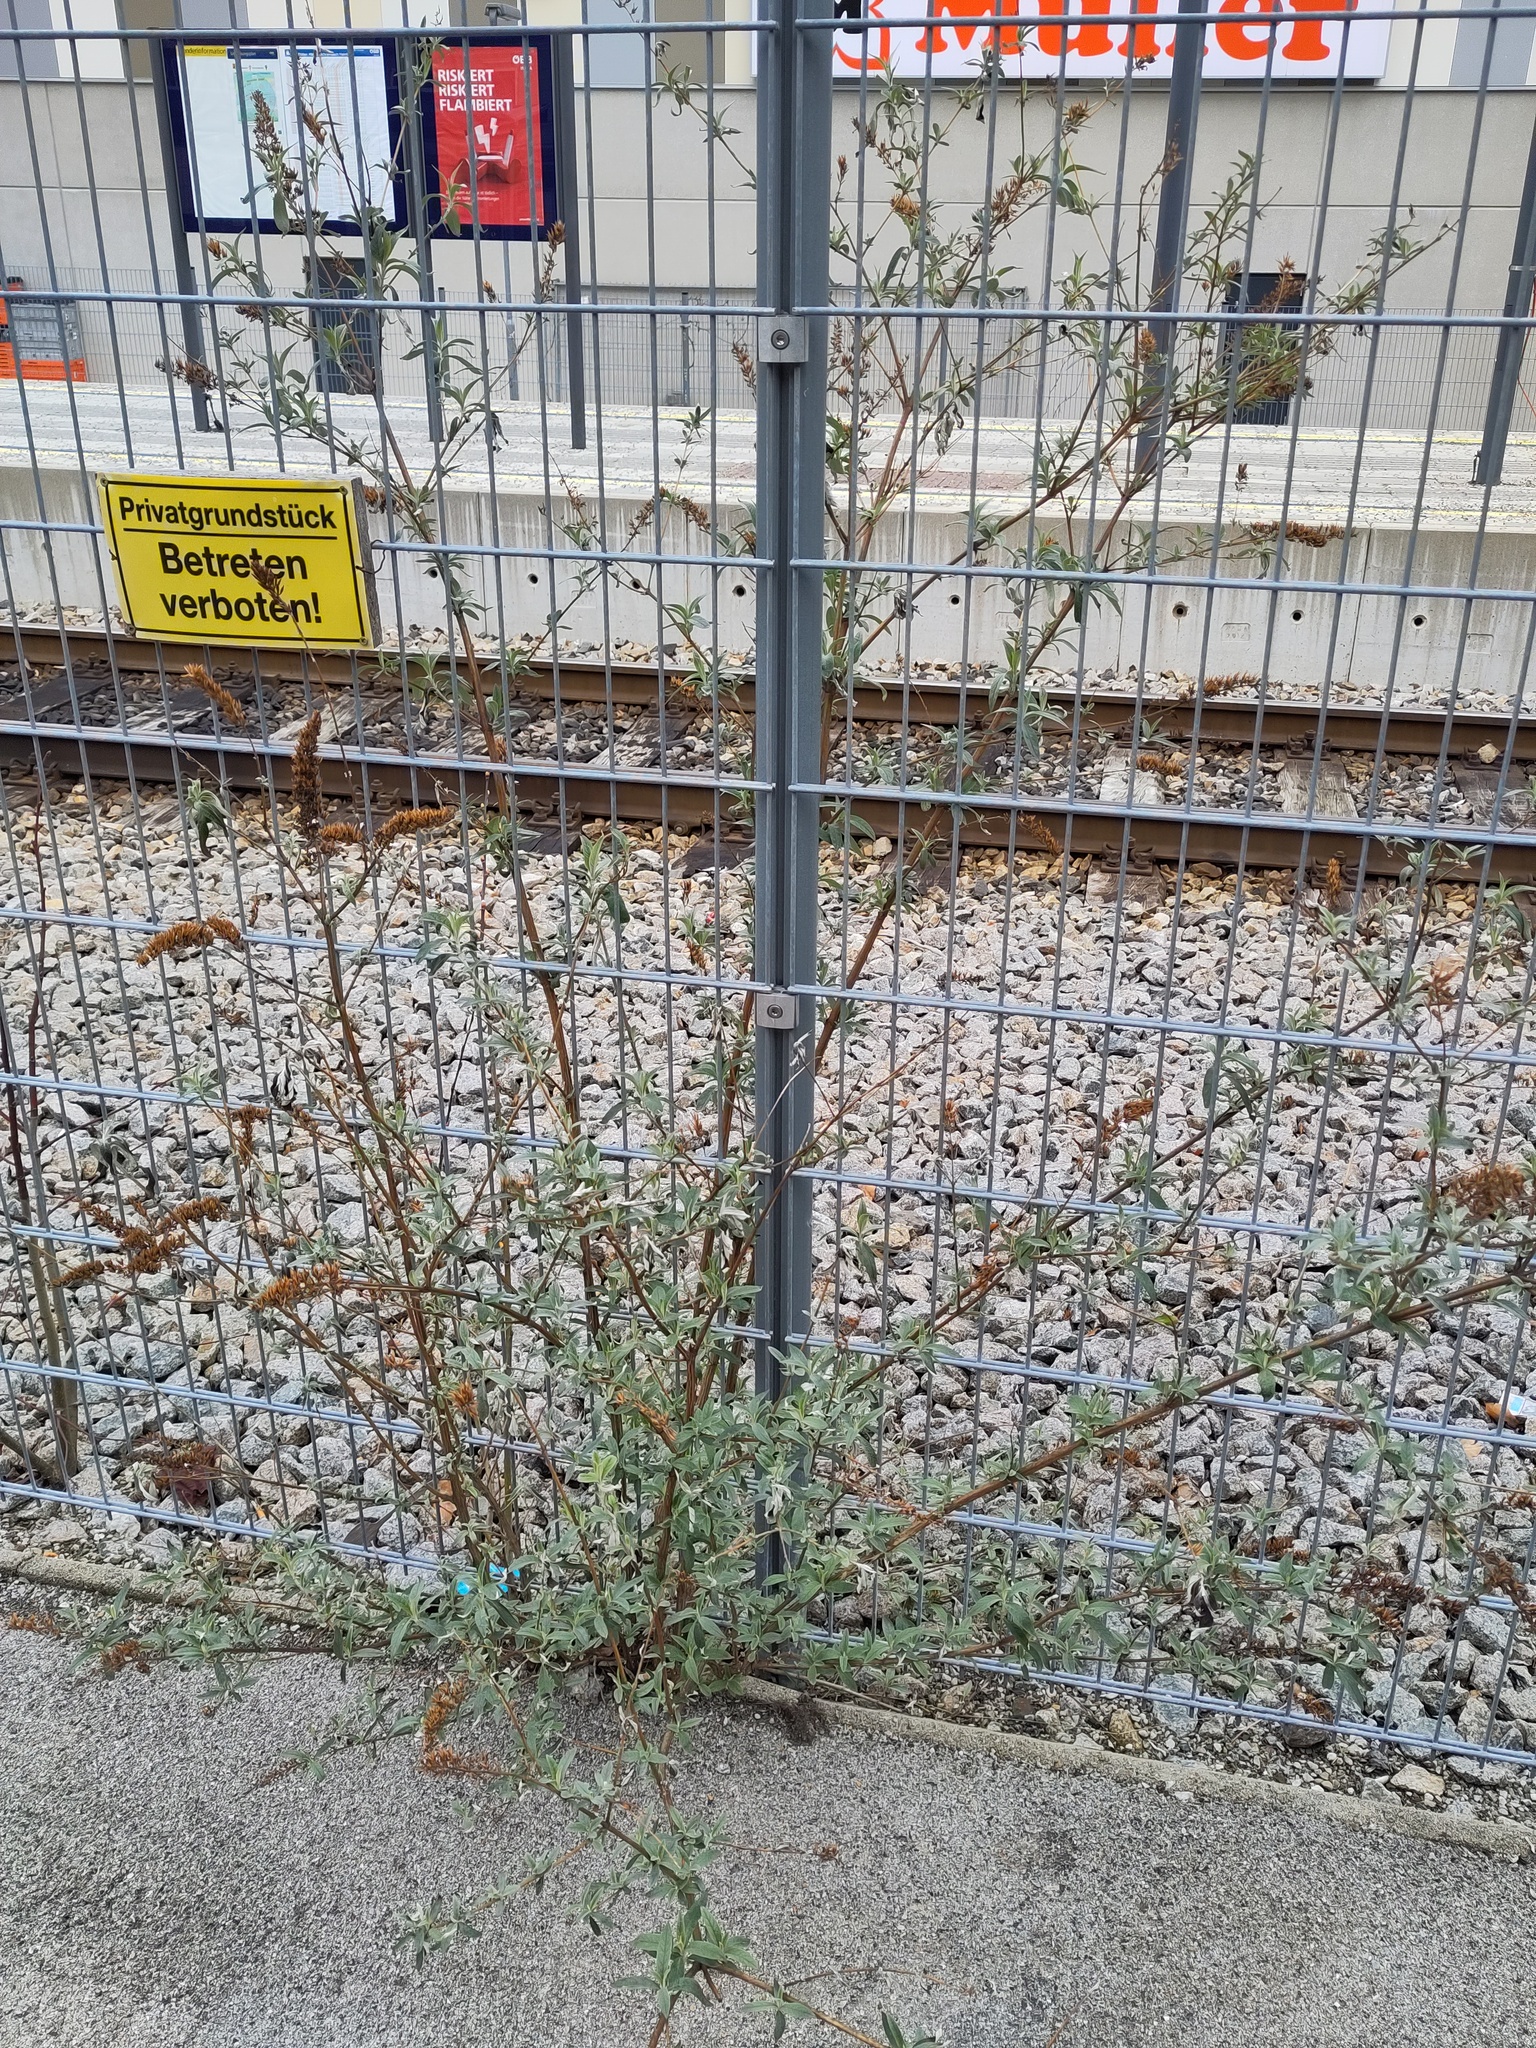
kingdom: Plantae
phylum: Tracheophyta
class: Magnoliopsida
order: Lamiales
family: Scrophulariaceae
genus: Buddleja
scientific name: Buddleja davidii
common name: Butterfly-bush
